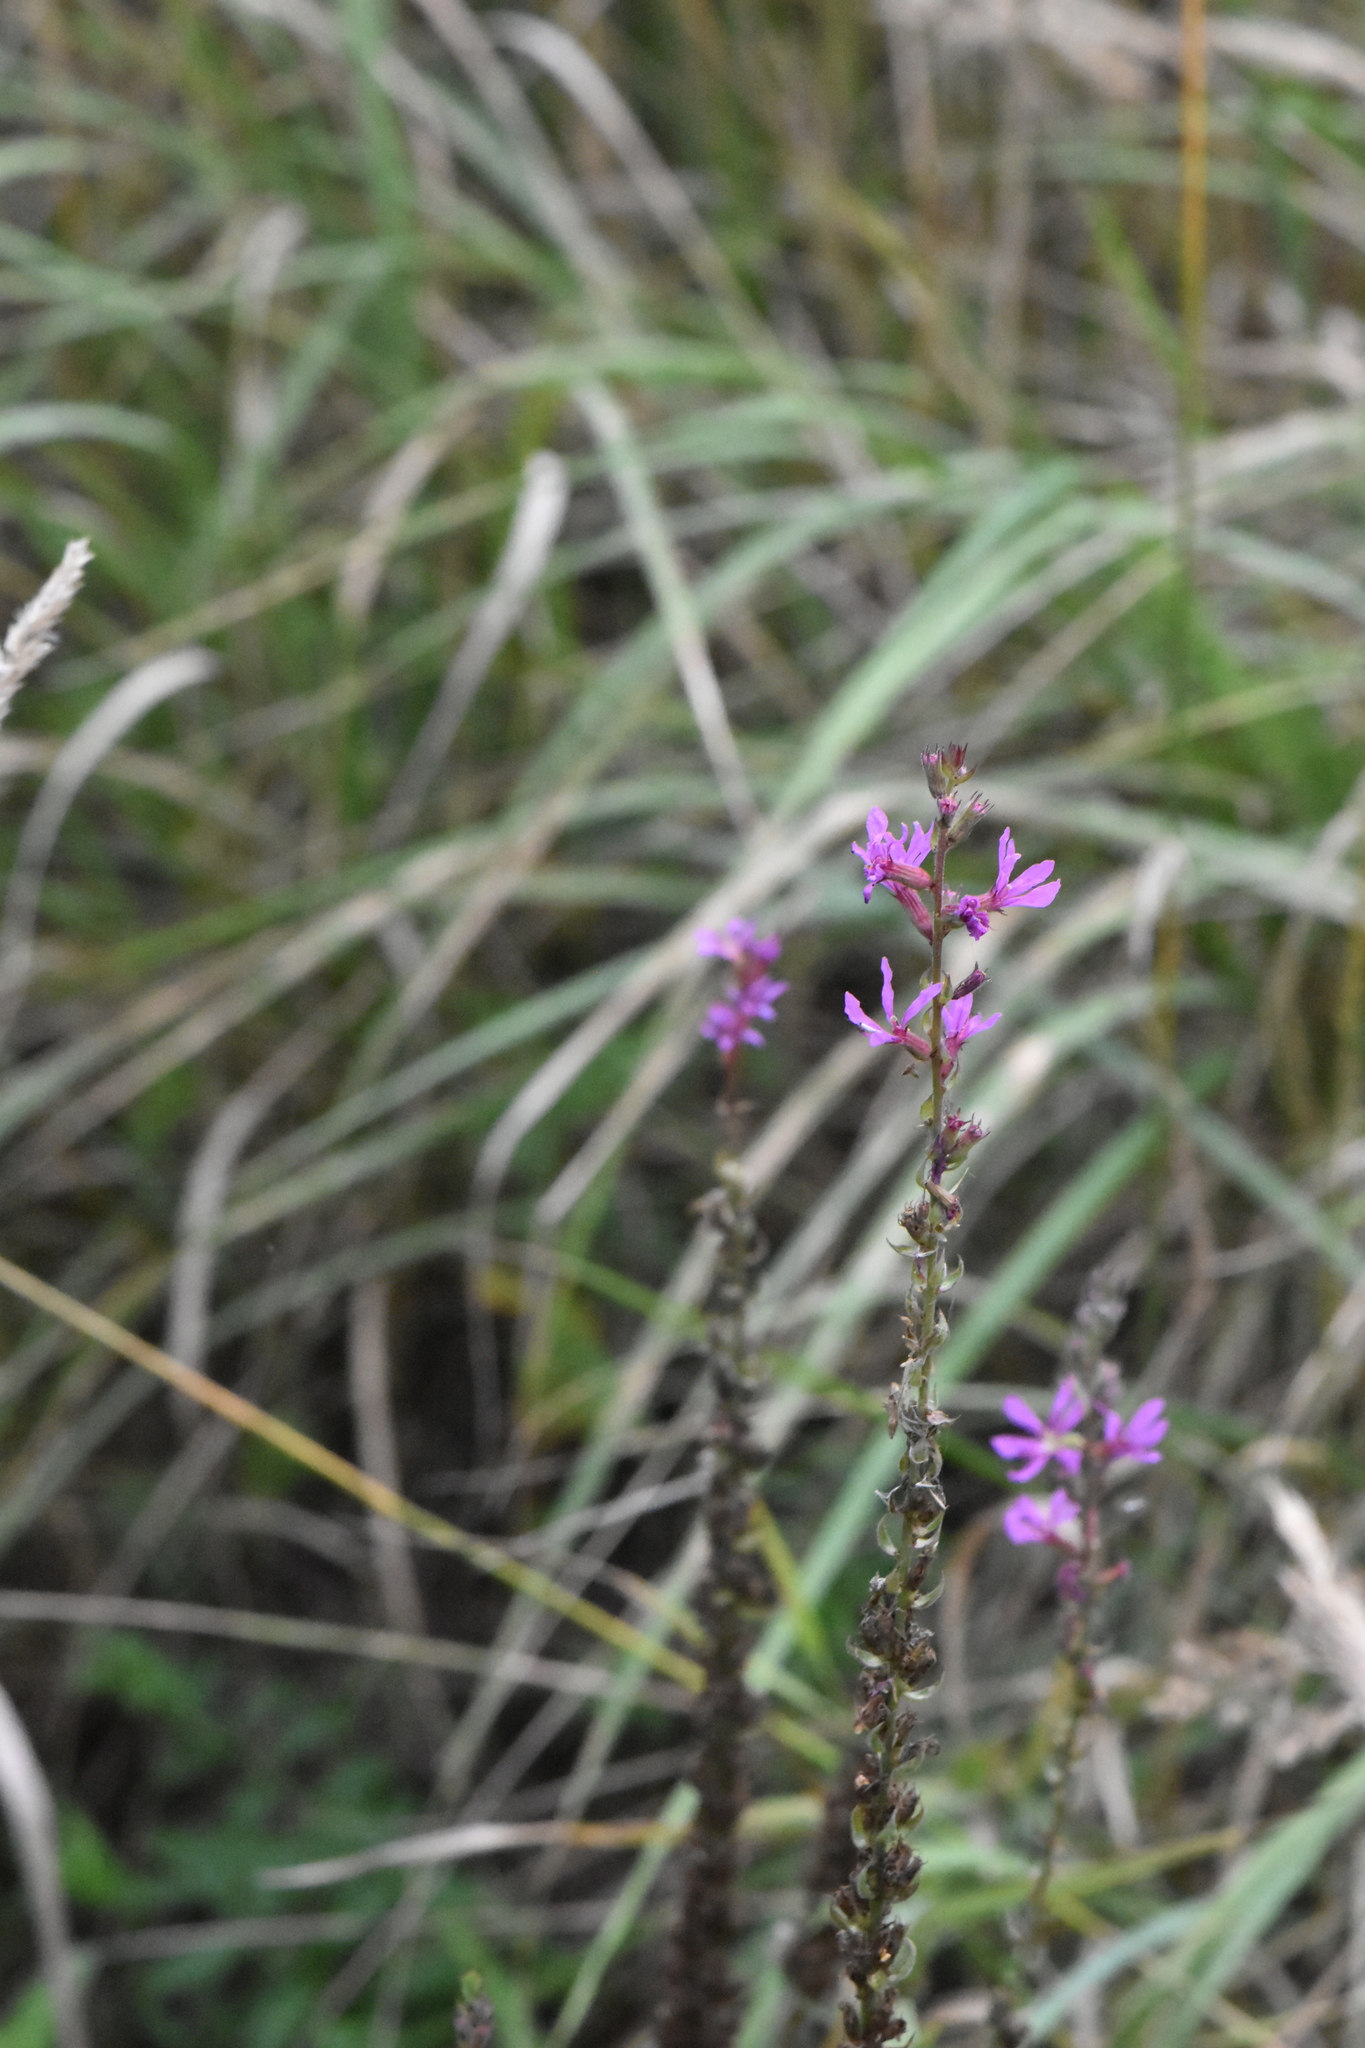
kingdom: Plantae
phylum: Tracheophyta
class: Magnoliopsida
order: Myrtales
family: Lythraceae
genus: Lythrum
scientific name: Lythrum salicaria
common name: Purple loosestrife
